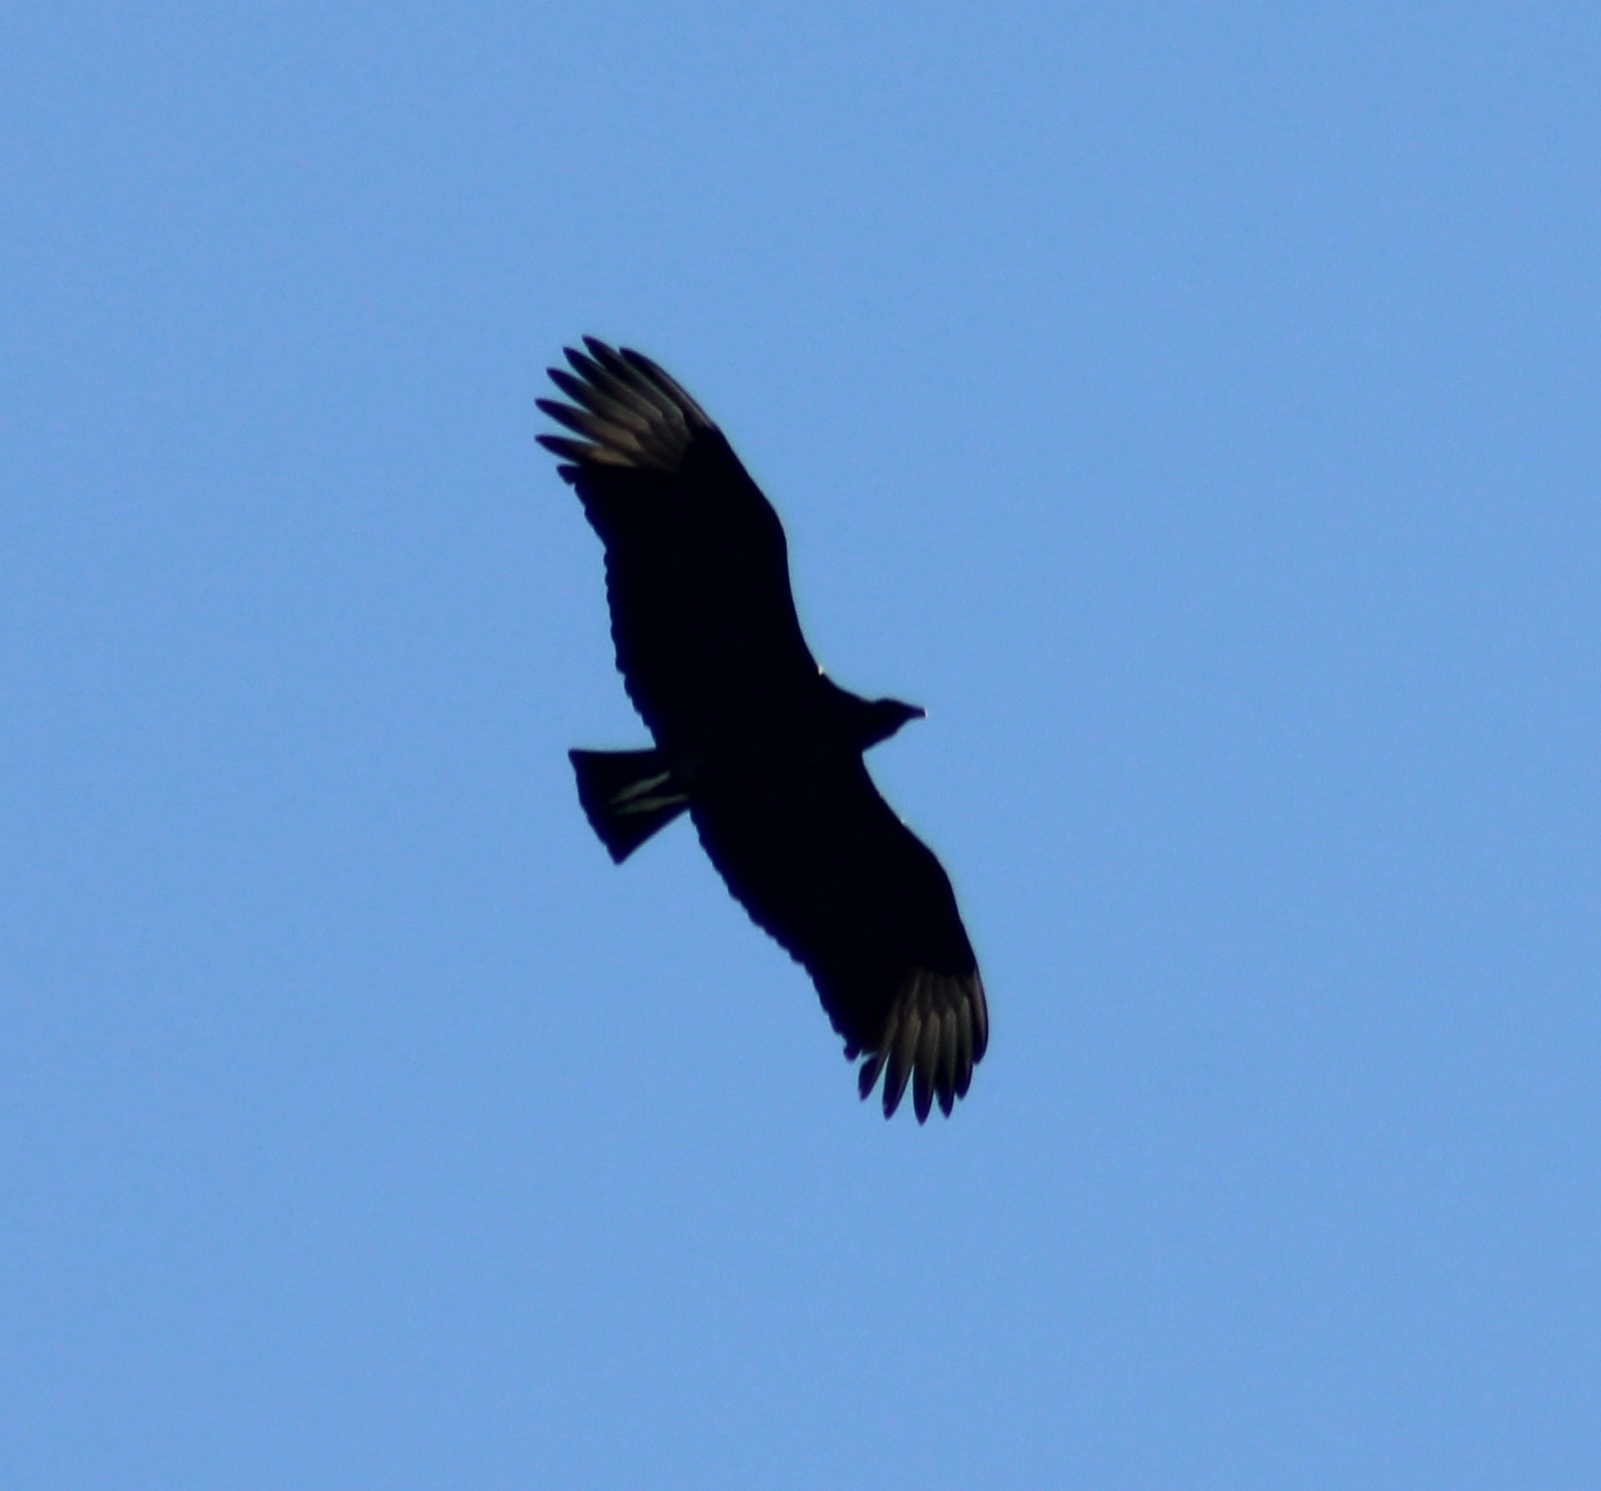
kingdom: Animalia
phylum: Chordata
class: Aves
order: Accipitriformes
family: Cathartidae
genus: Coragyps
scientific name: Coragyps atratus
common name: Black vulture
